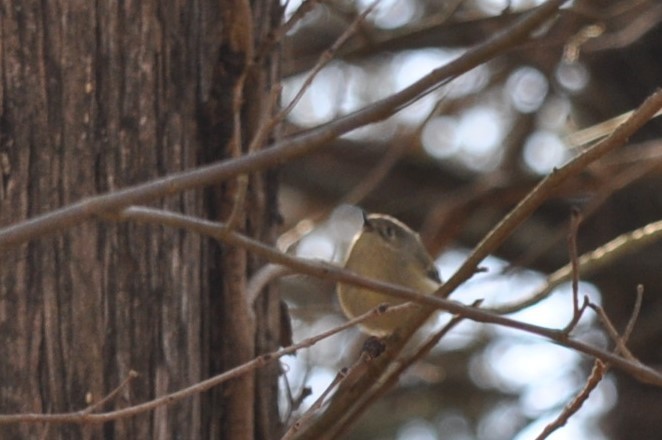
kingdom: Animalia
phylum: Chordata
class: Aves
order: Passeriformes
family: Regulidae
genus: Regulus
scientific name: Regulus calendula
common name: Ruby-crowned kinglet
